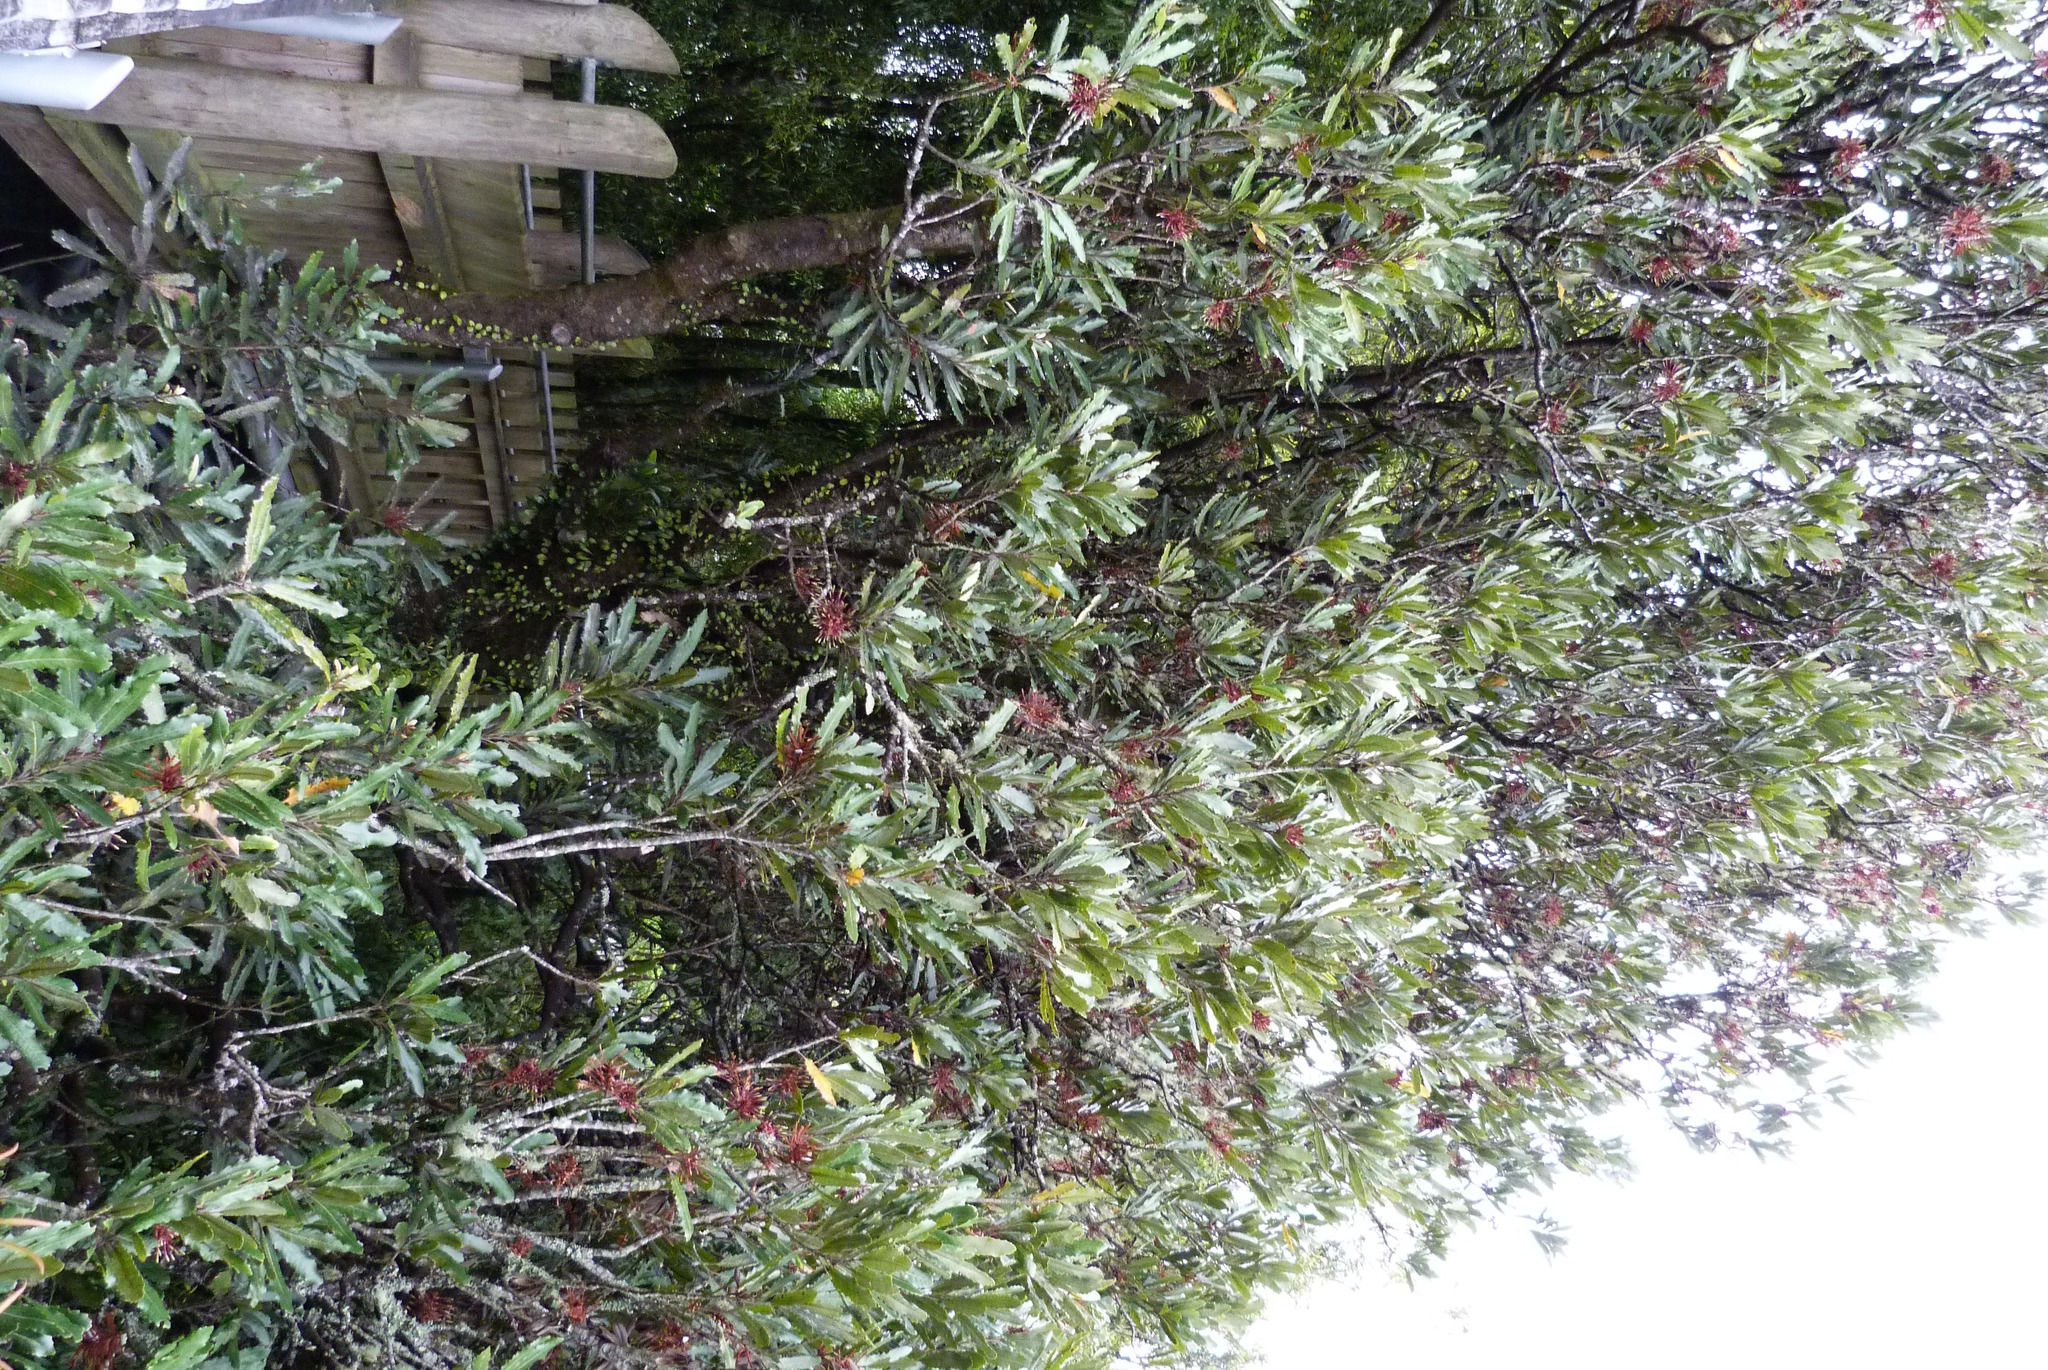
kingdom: Plantae
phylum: Tracheophyta
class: Magnoliopsida
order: Proteales
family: Proteaceae
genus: Knightia
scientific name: Knightia excelsa
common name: New zealand-honeysuckle
